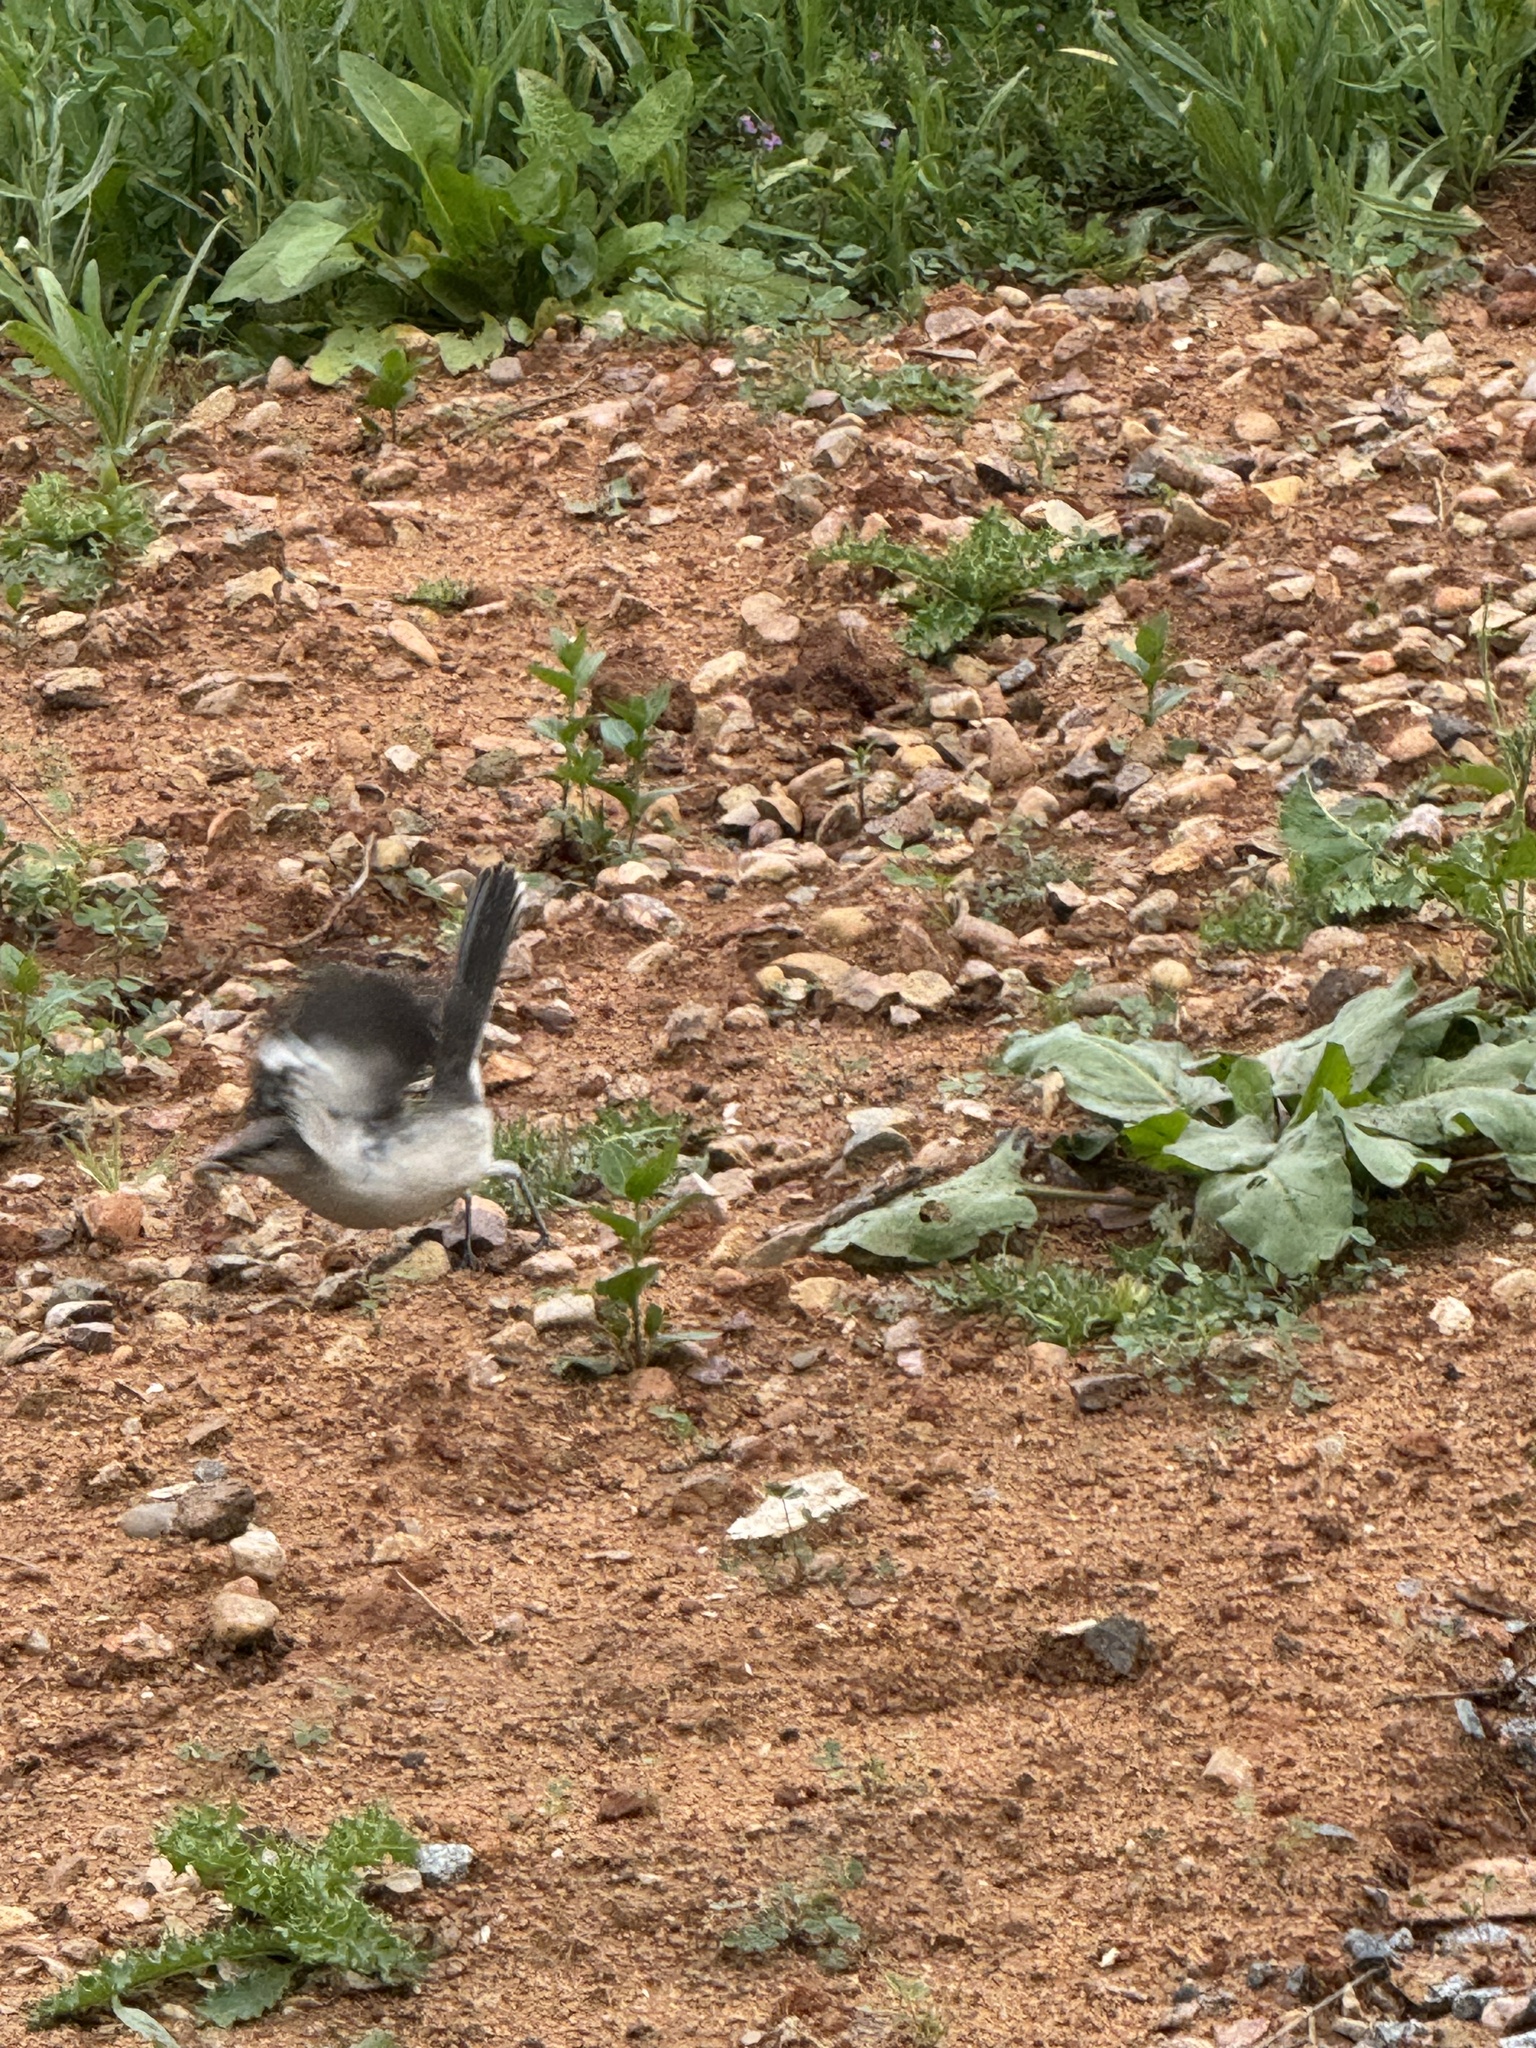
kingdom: Animalia
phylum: Chordata
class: Aves
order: Passeriformes
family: Mimidae
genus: Mimus
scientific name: Mimus polyglottos
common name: Northern mockingbird
